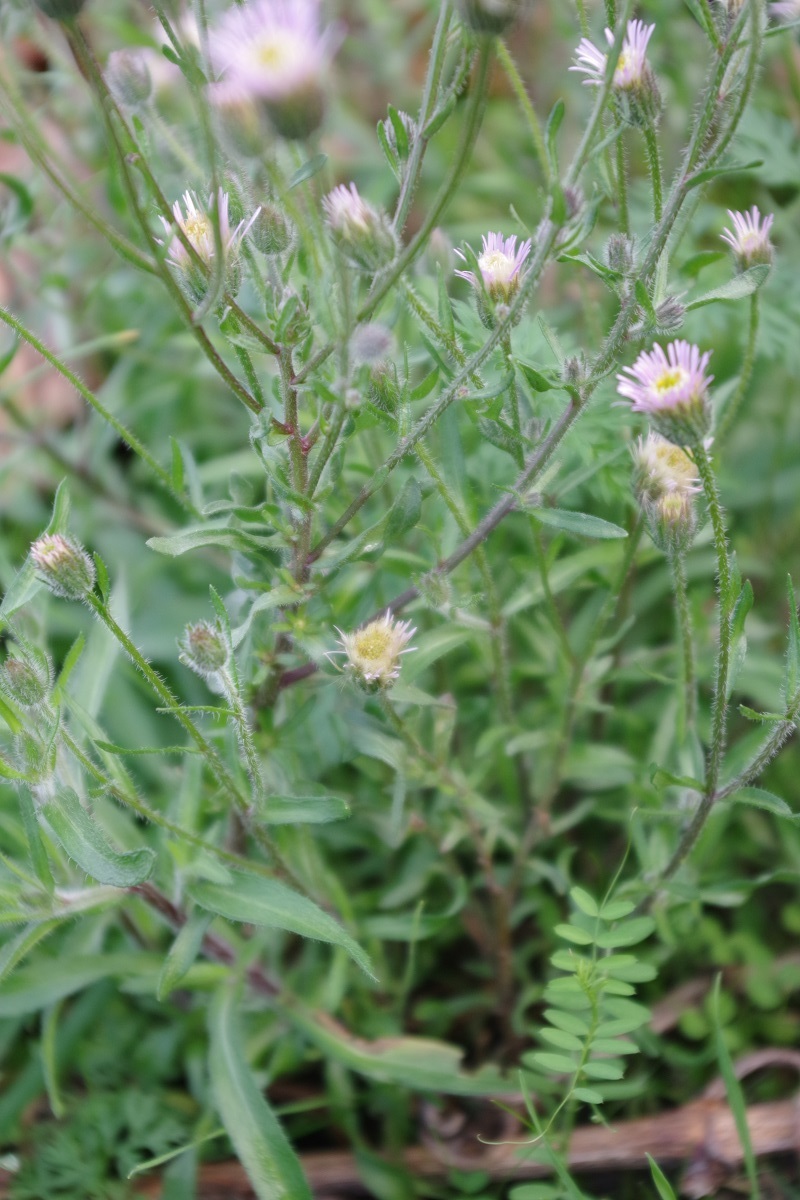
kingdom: Plantae
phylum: Tracheophyta
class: Magnoliopsida
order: Asterales
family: Asteraceae
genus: Erigeron
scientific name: Erigeron acris
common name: Blue fleabane
